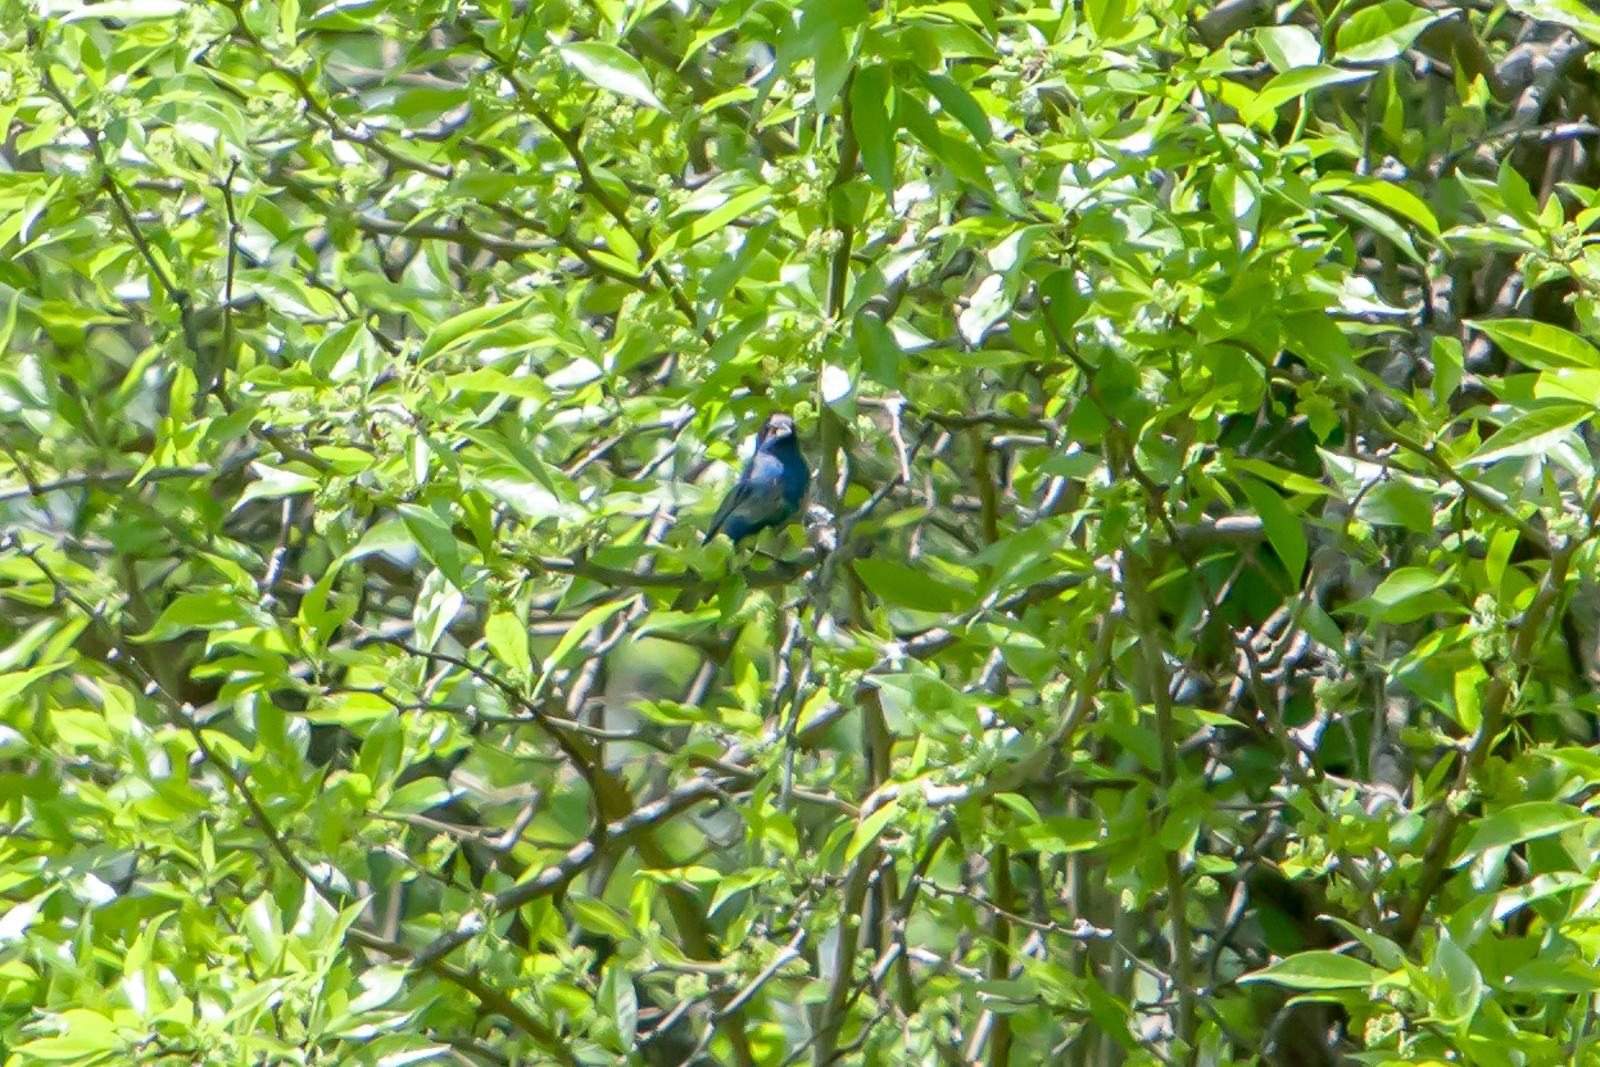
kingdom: Animalia
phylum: Chordata
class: Aves
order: Passeriformes
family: Cardinalidae
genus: Passerina
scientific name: Passerina cyanea
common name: Indigo bunting
